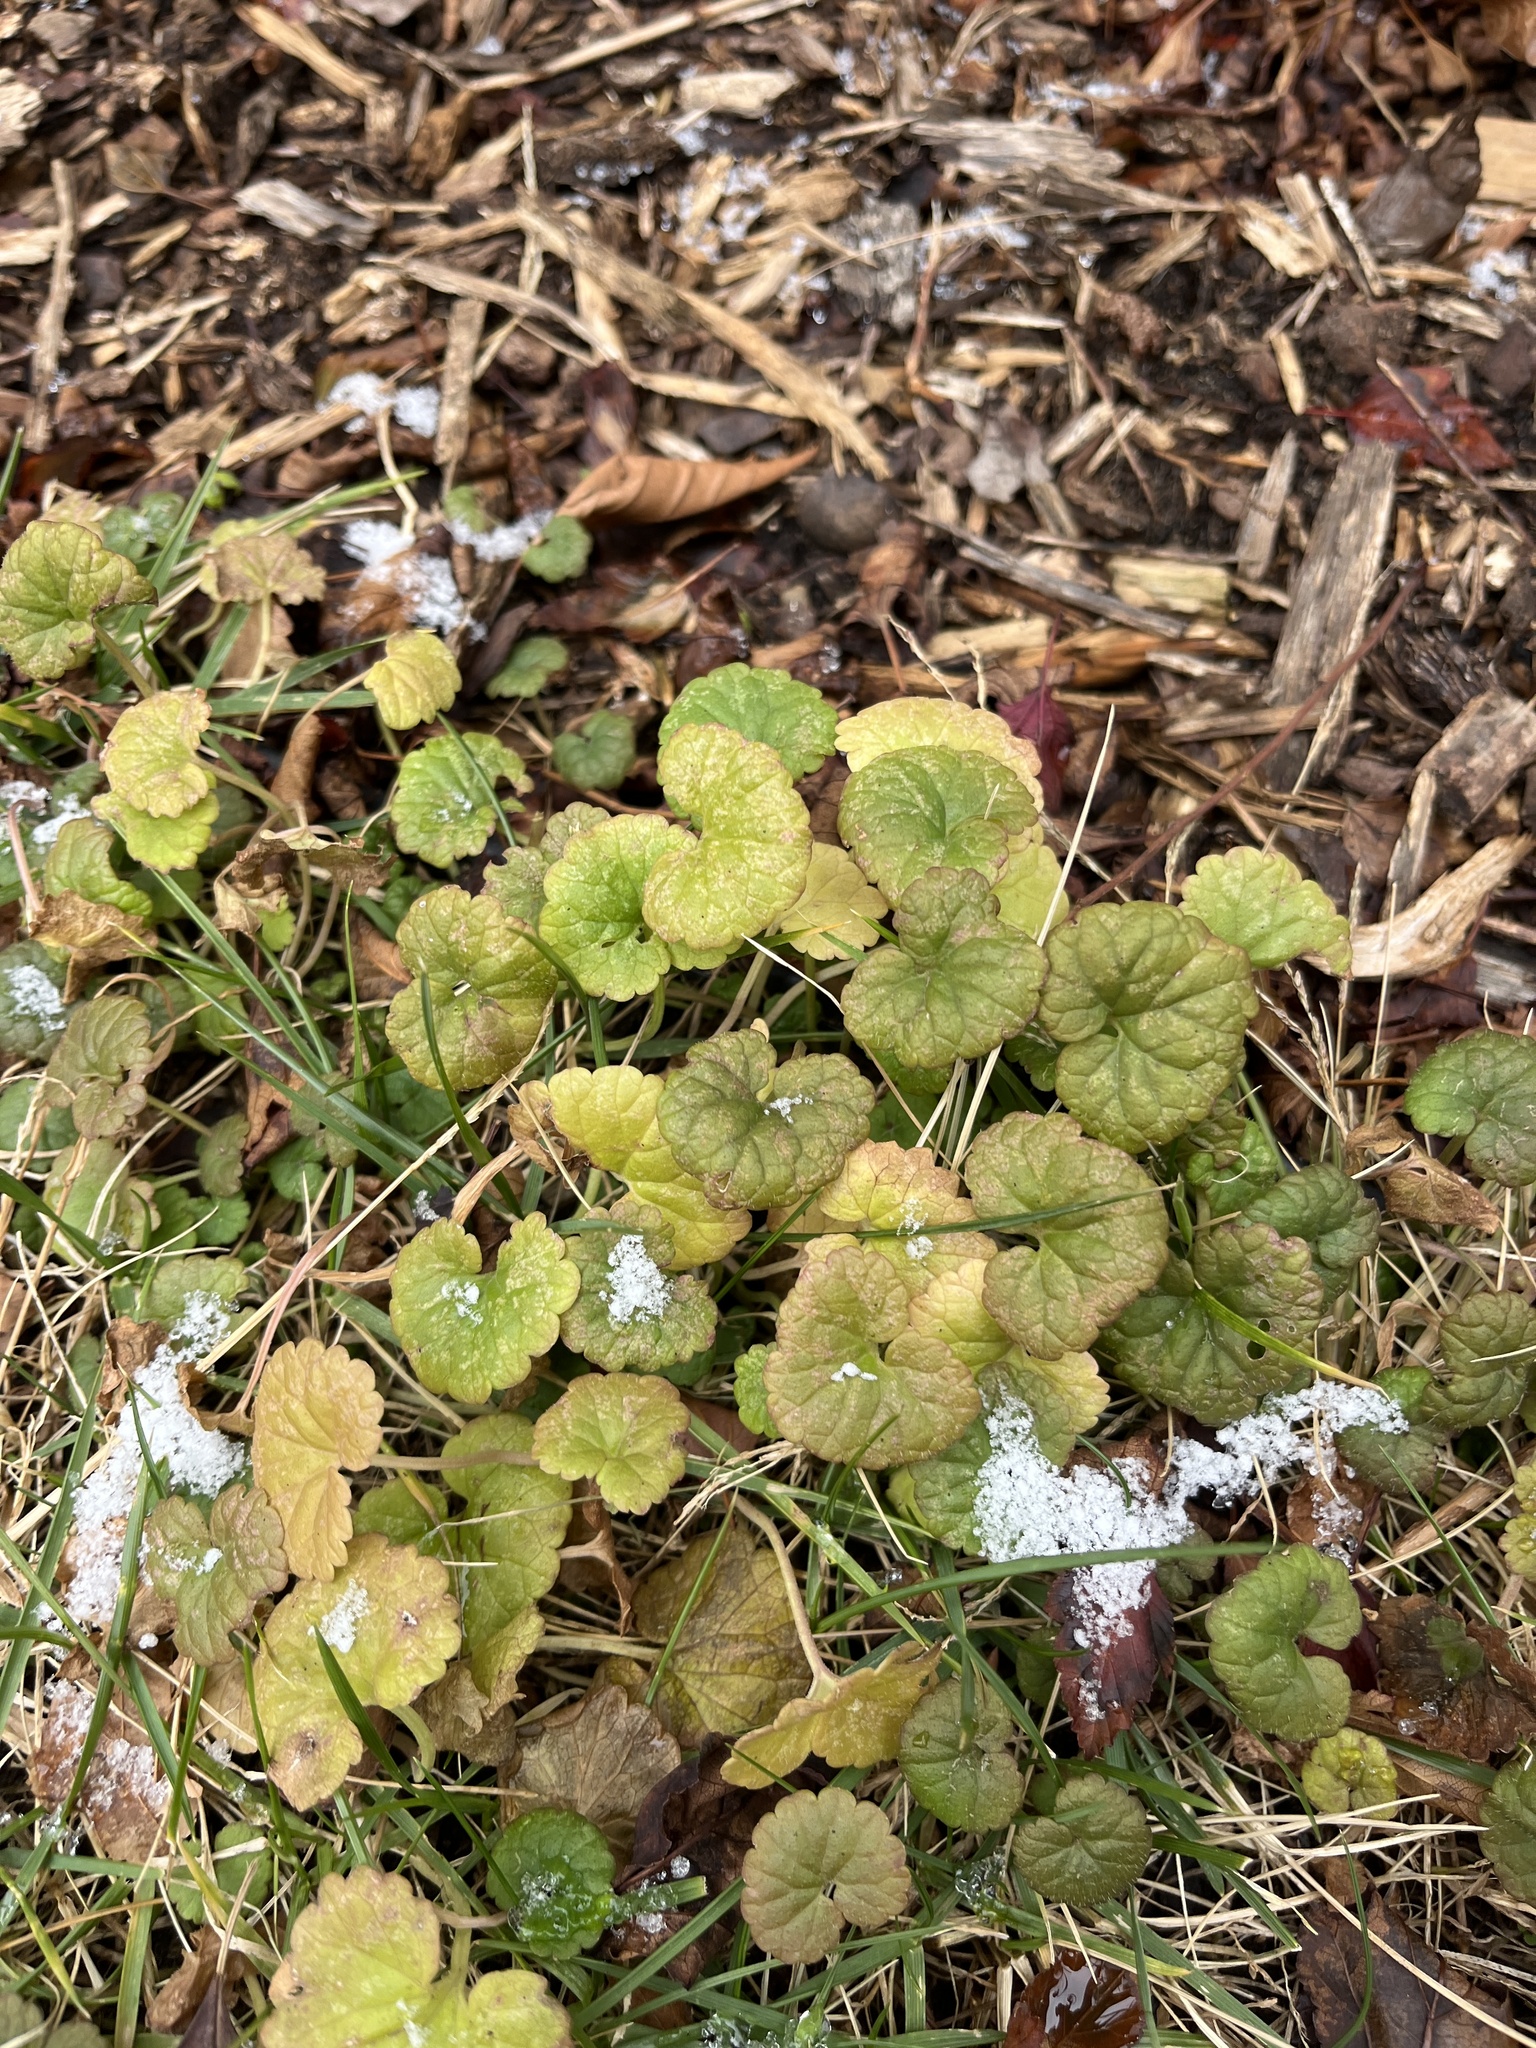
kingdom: Plantae
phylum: Tracheophyta
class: Magnoliopsida
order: Lamiales
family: Lamiaceae
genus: Glechoma
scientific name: Glechoma hederacea
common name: Ground ivy
